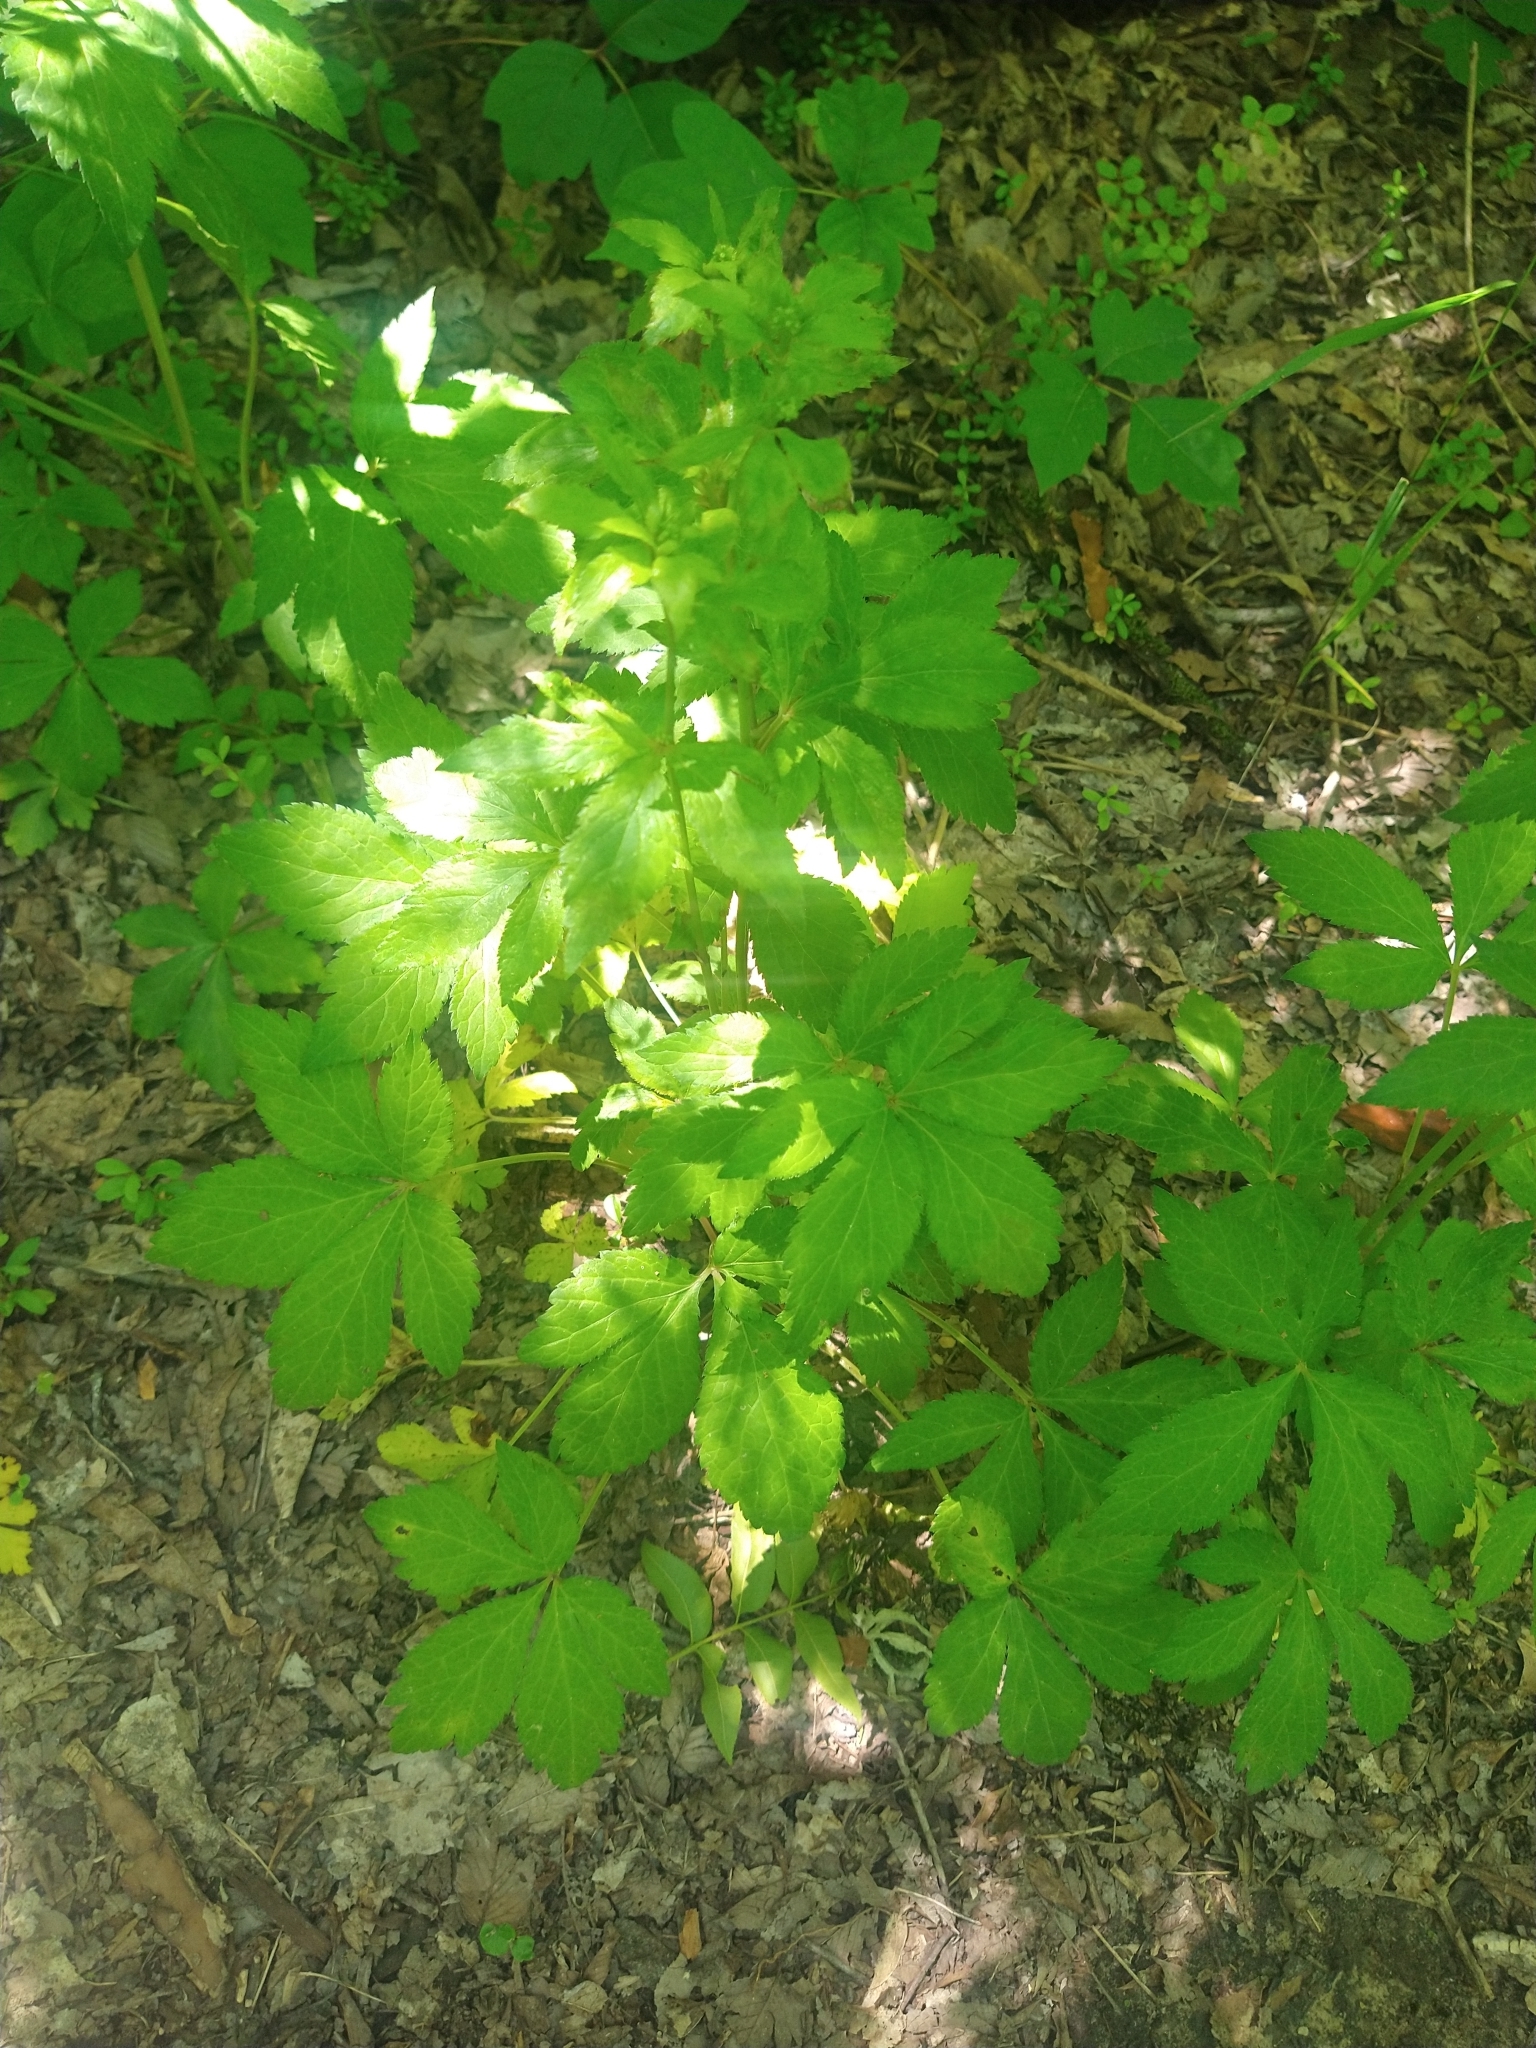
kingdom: Plantae
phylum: Tracheophyta
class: Magnoliopsida
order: Vitales
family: Vitaceae
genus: Parthenocissus
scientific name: Parthenocissus quinquefolia
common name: Virginia-creeper
